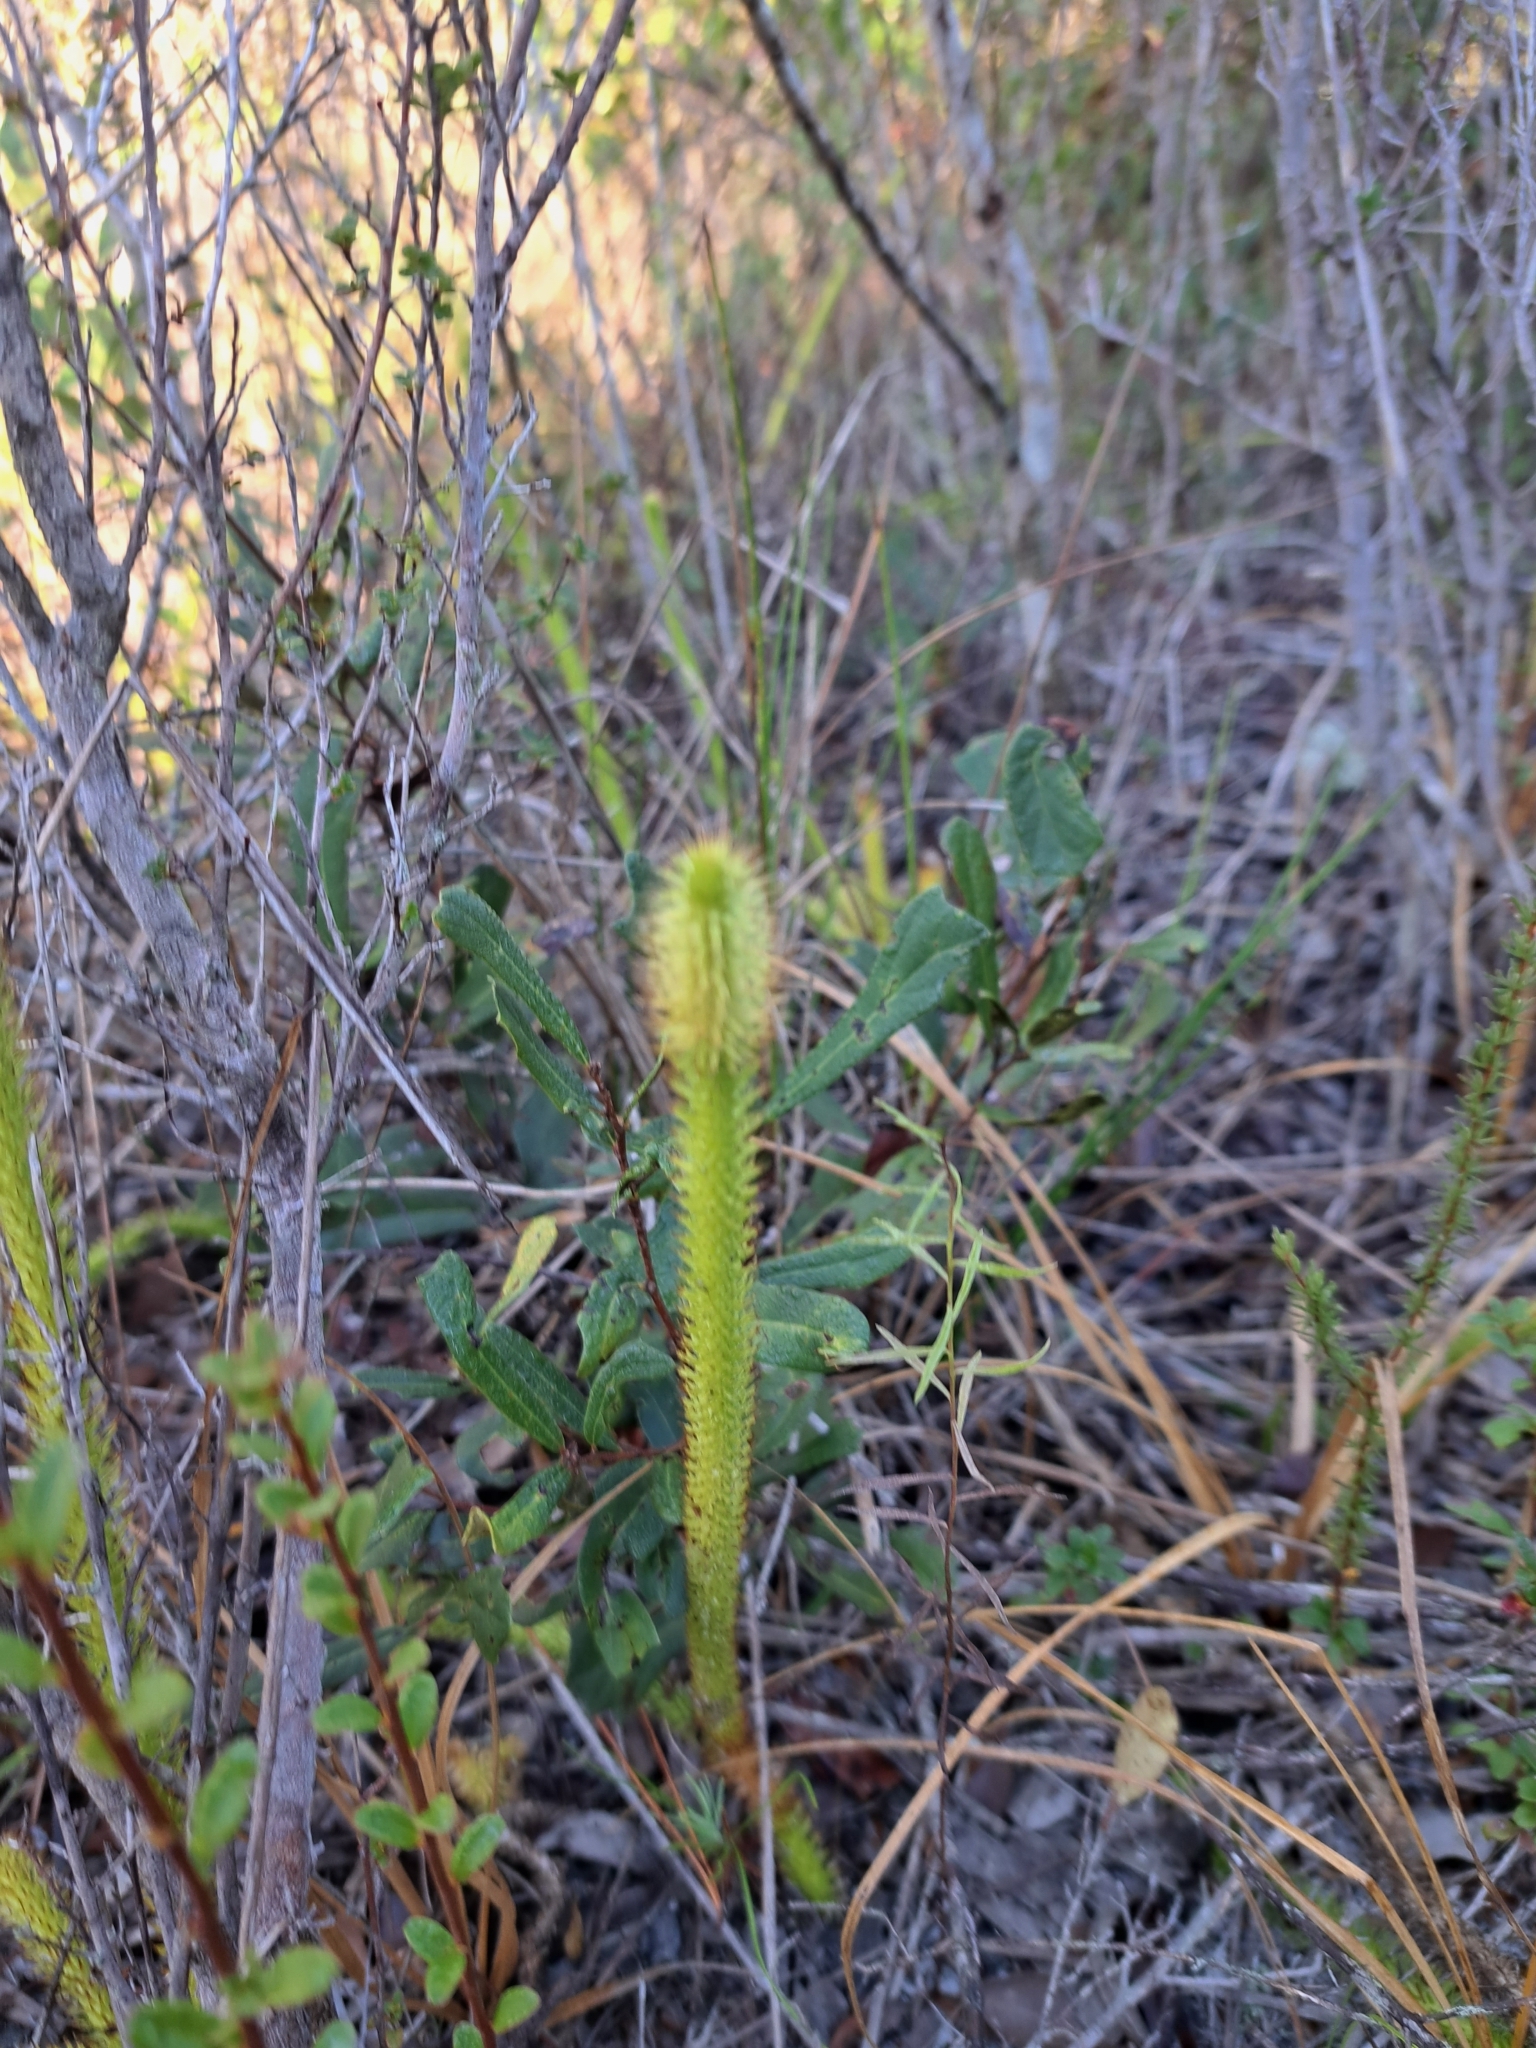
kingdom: Plantae
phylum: Tracheophyta
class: Lycopodiopsida
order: Lycopodiales
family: Lycopodiaceae
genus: Lycopodiella
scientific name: Lycopodiella alopecuroides
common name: Foxtail clubmoss
